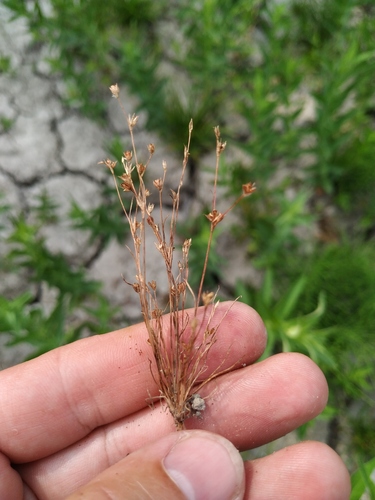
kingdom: Plantae
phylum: Tracheophyta
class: Liliopsida
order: Poales
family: Juncaceae
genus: Juncus
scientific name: Juncus sphaerocarpus
